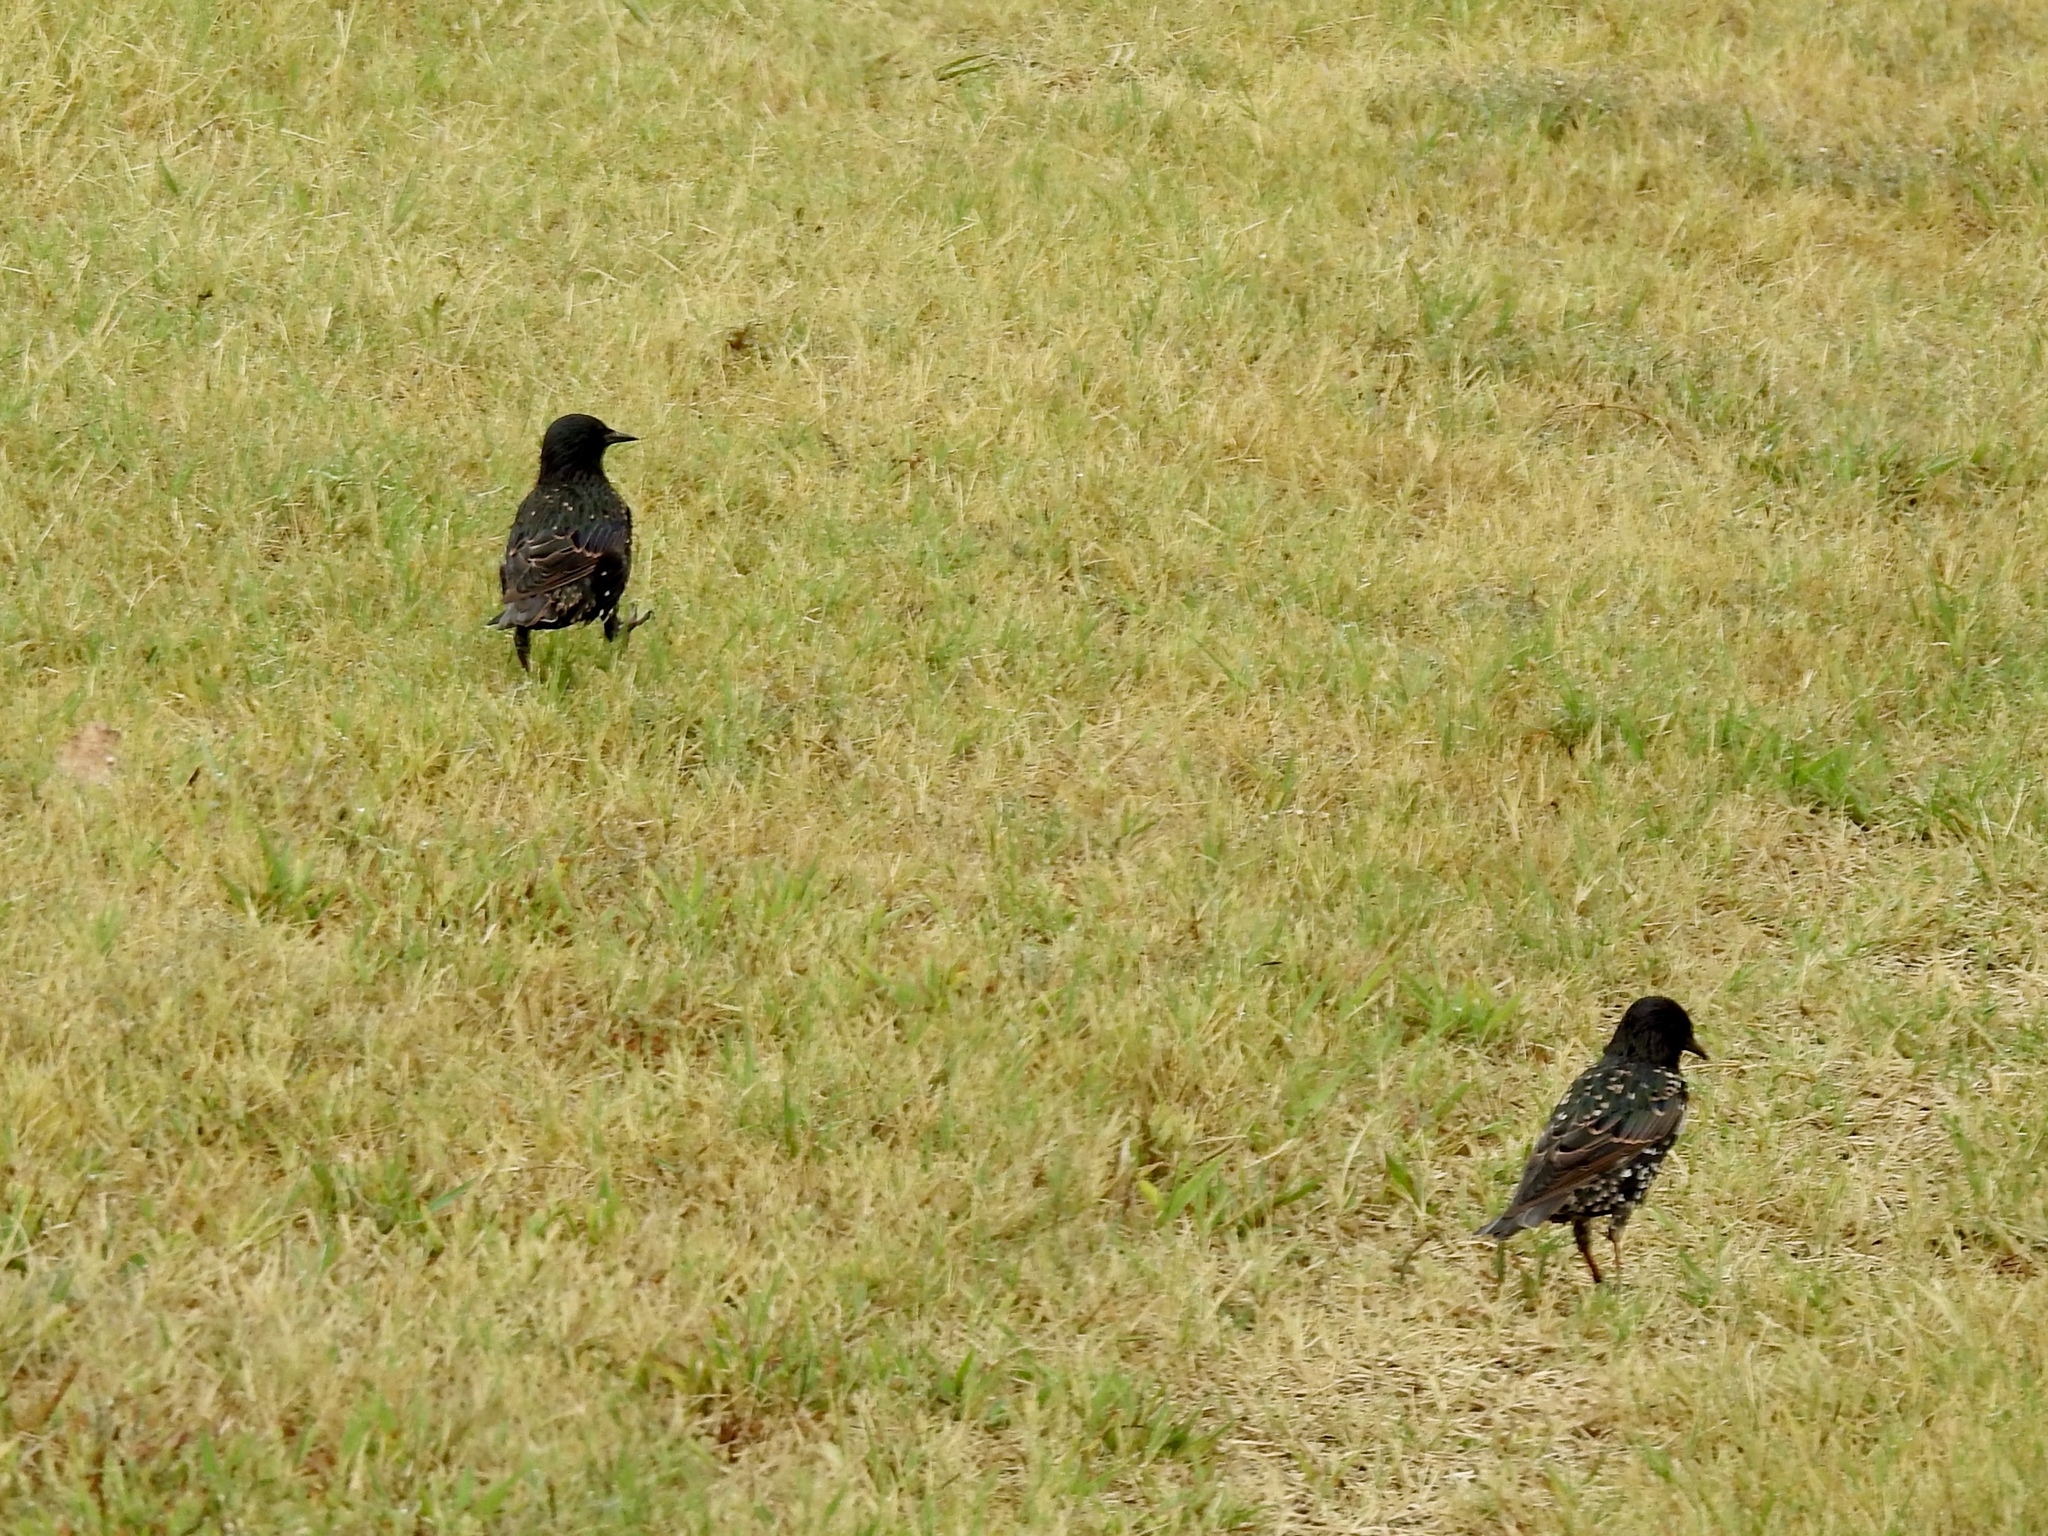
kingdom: Animalia
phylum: Chordata
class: Aves
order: Passeriformes
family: Sturnidae
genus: Sturnus
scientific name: Sturnus vulgaris
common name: Common starling
